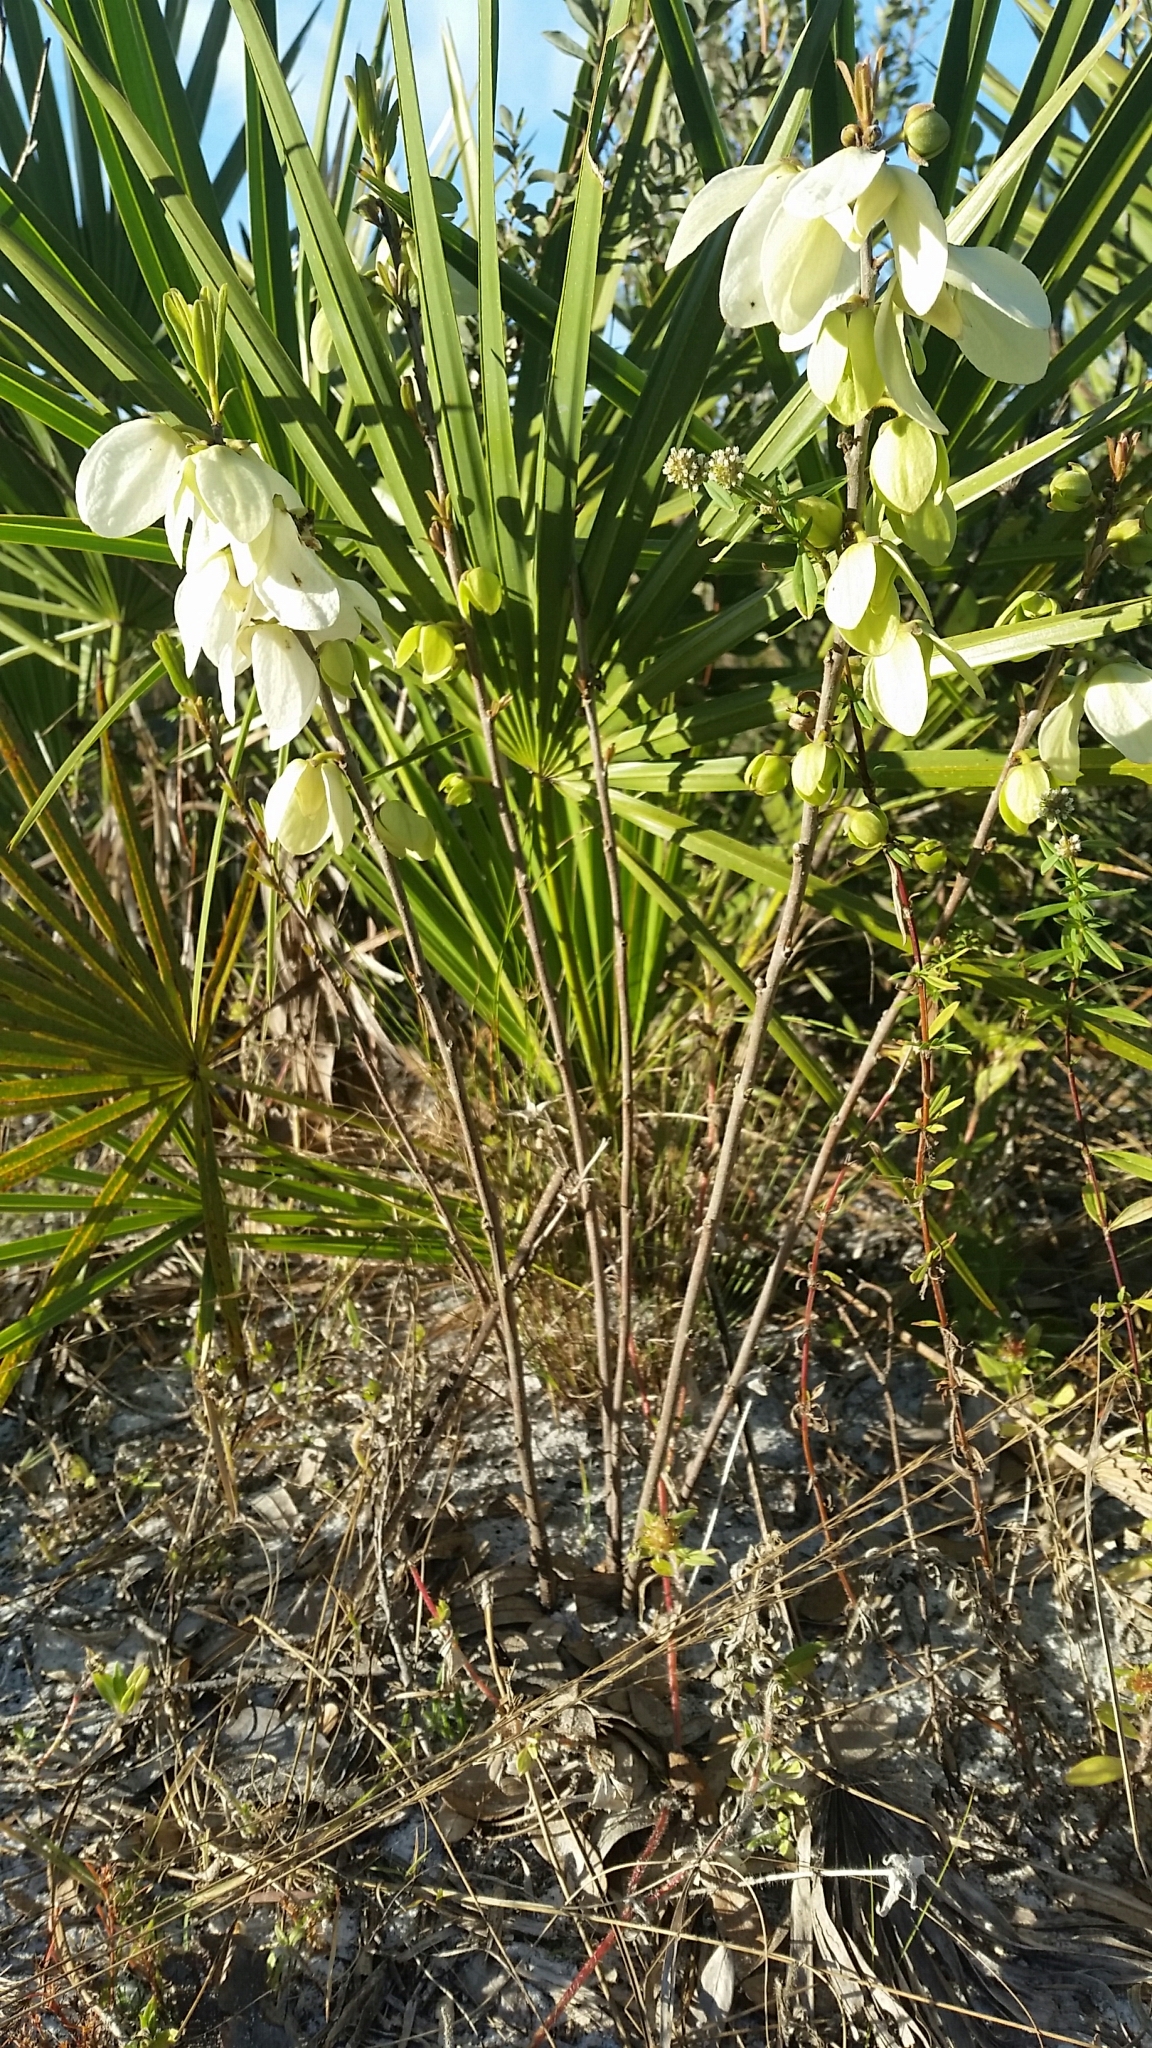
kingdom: Plantae
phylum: Tracheophyta
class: Magnoliopsida
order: Magnoliales
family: Annonaceae
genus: Asimina
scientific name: Asimina reticulata
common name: Flag pawpaw
